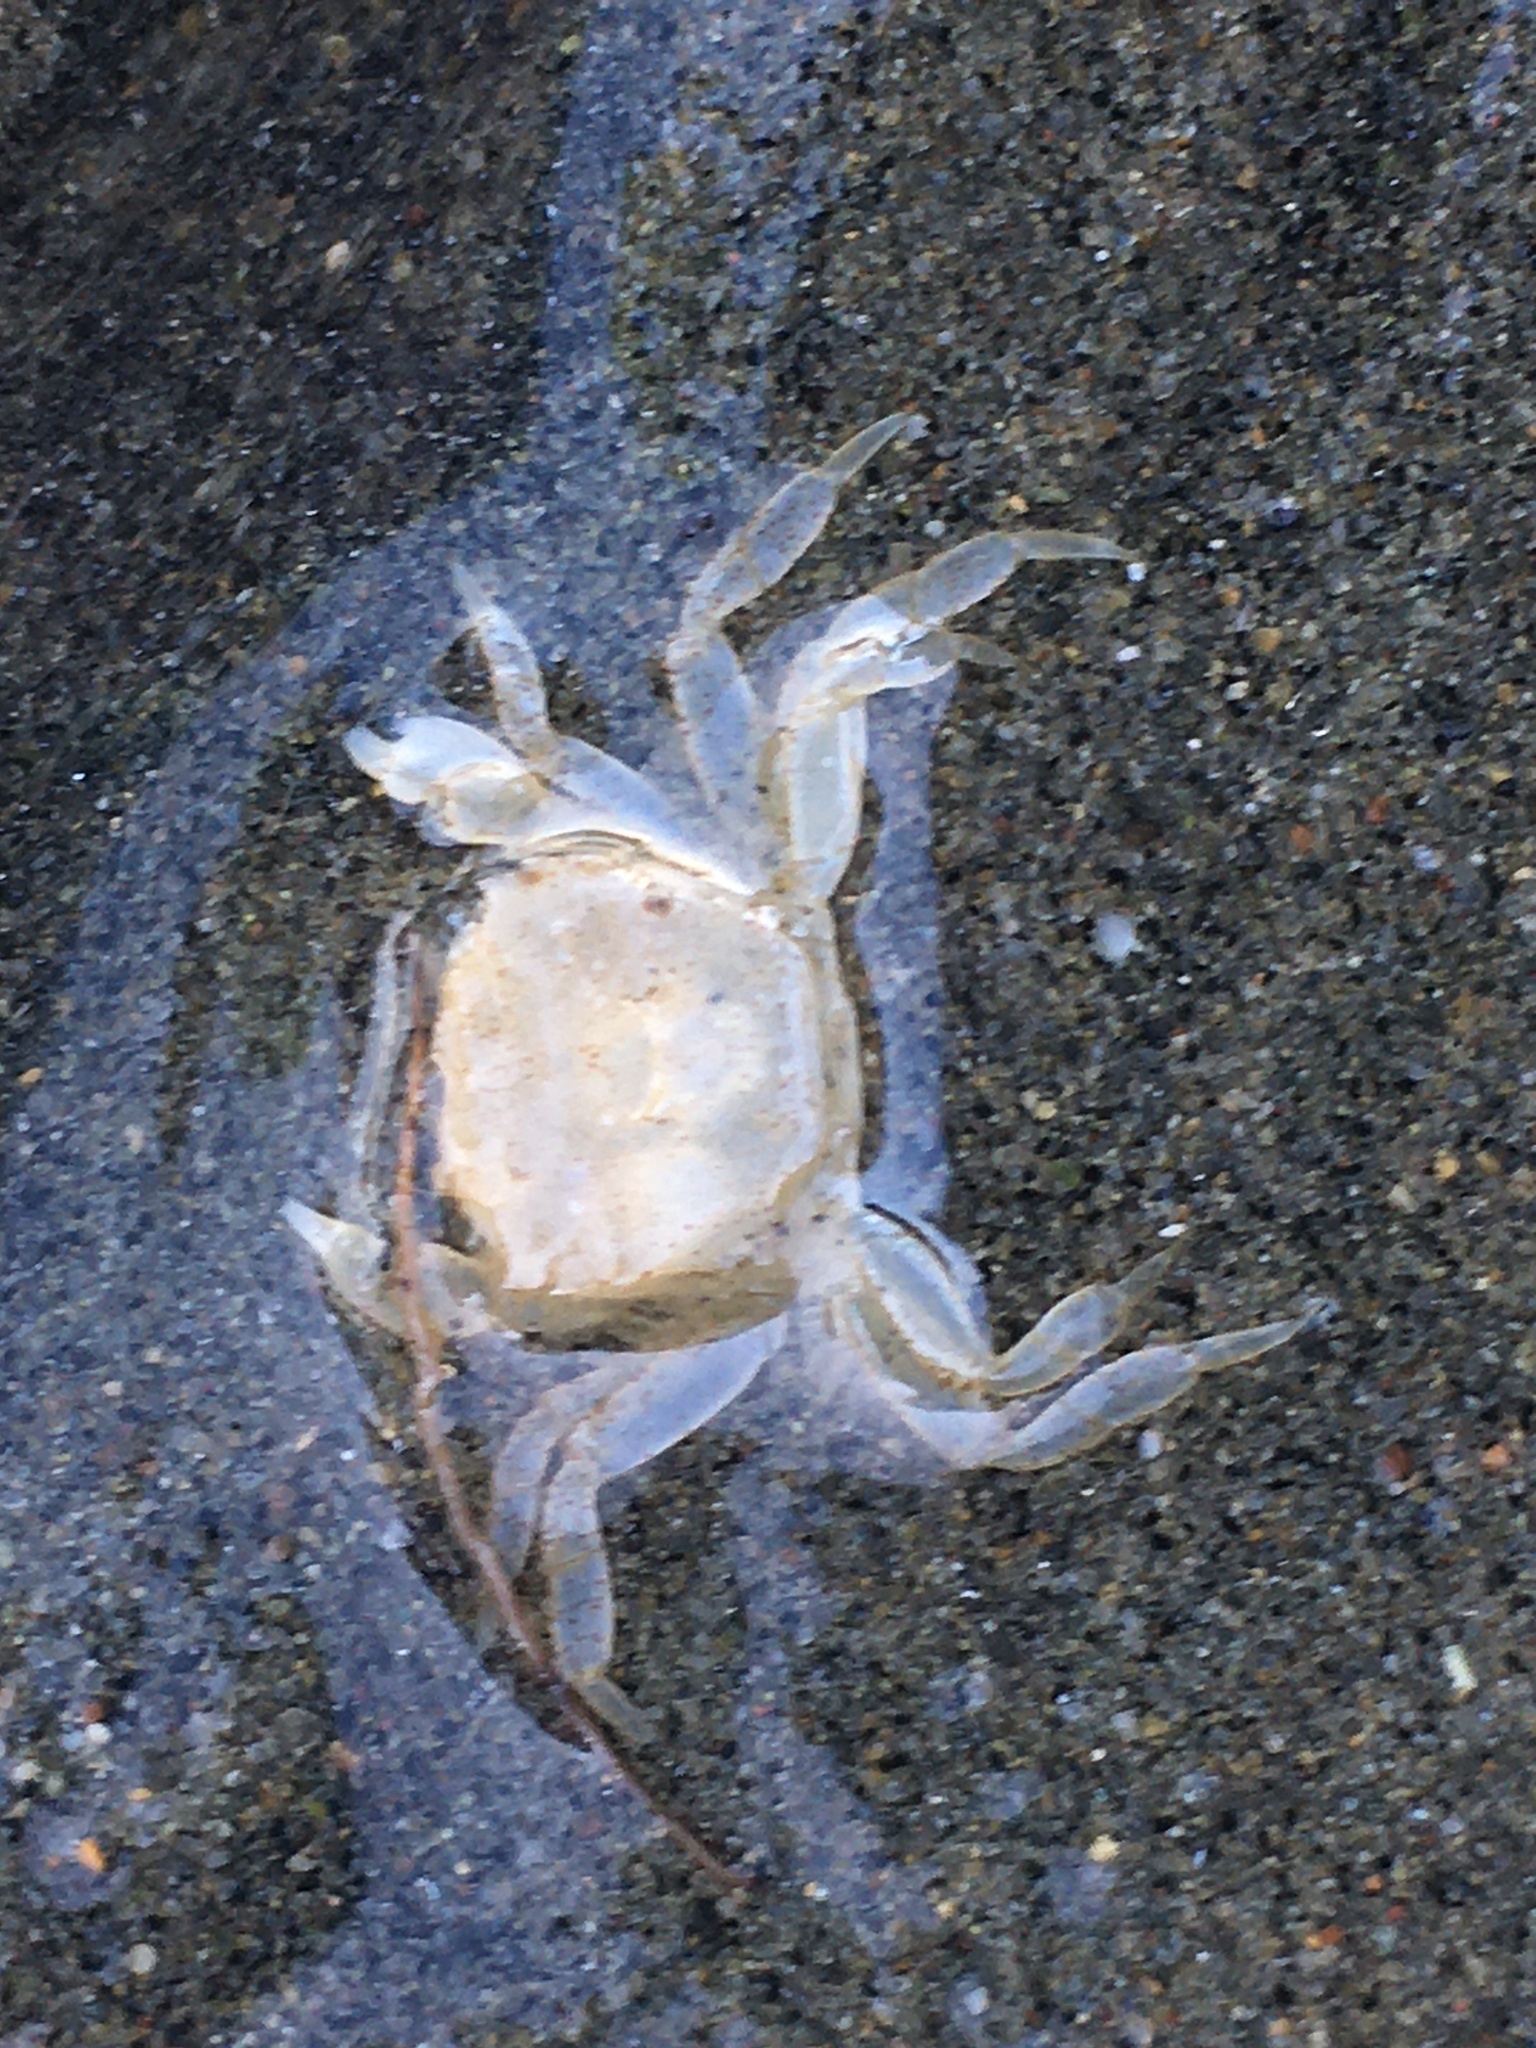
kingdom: Animalia
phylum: Arthropoda
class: Malacostraca
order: Decapoda
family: Varunidae
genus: Hemigrapsus
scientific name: Hemigrapsus oregonensis
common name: Yellow shore crab
